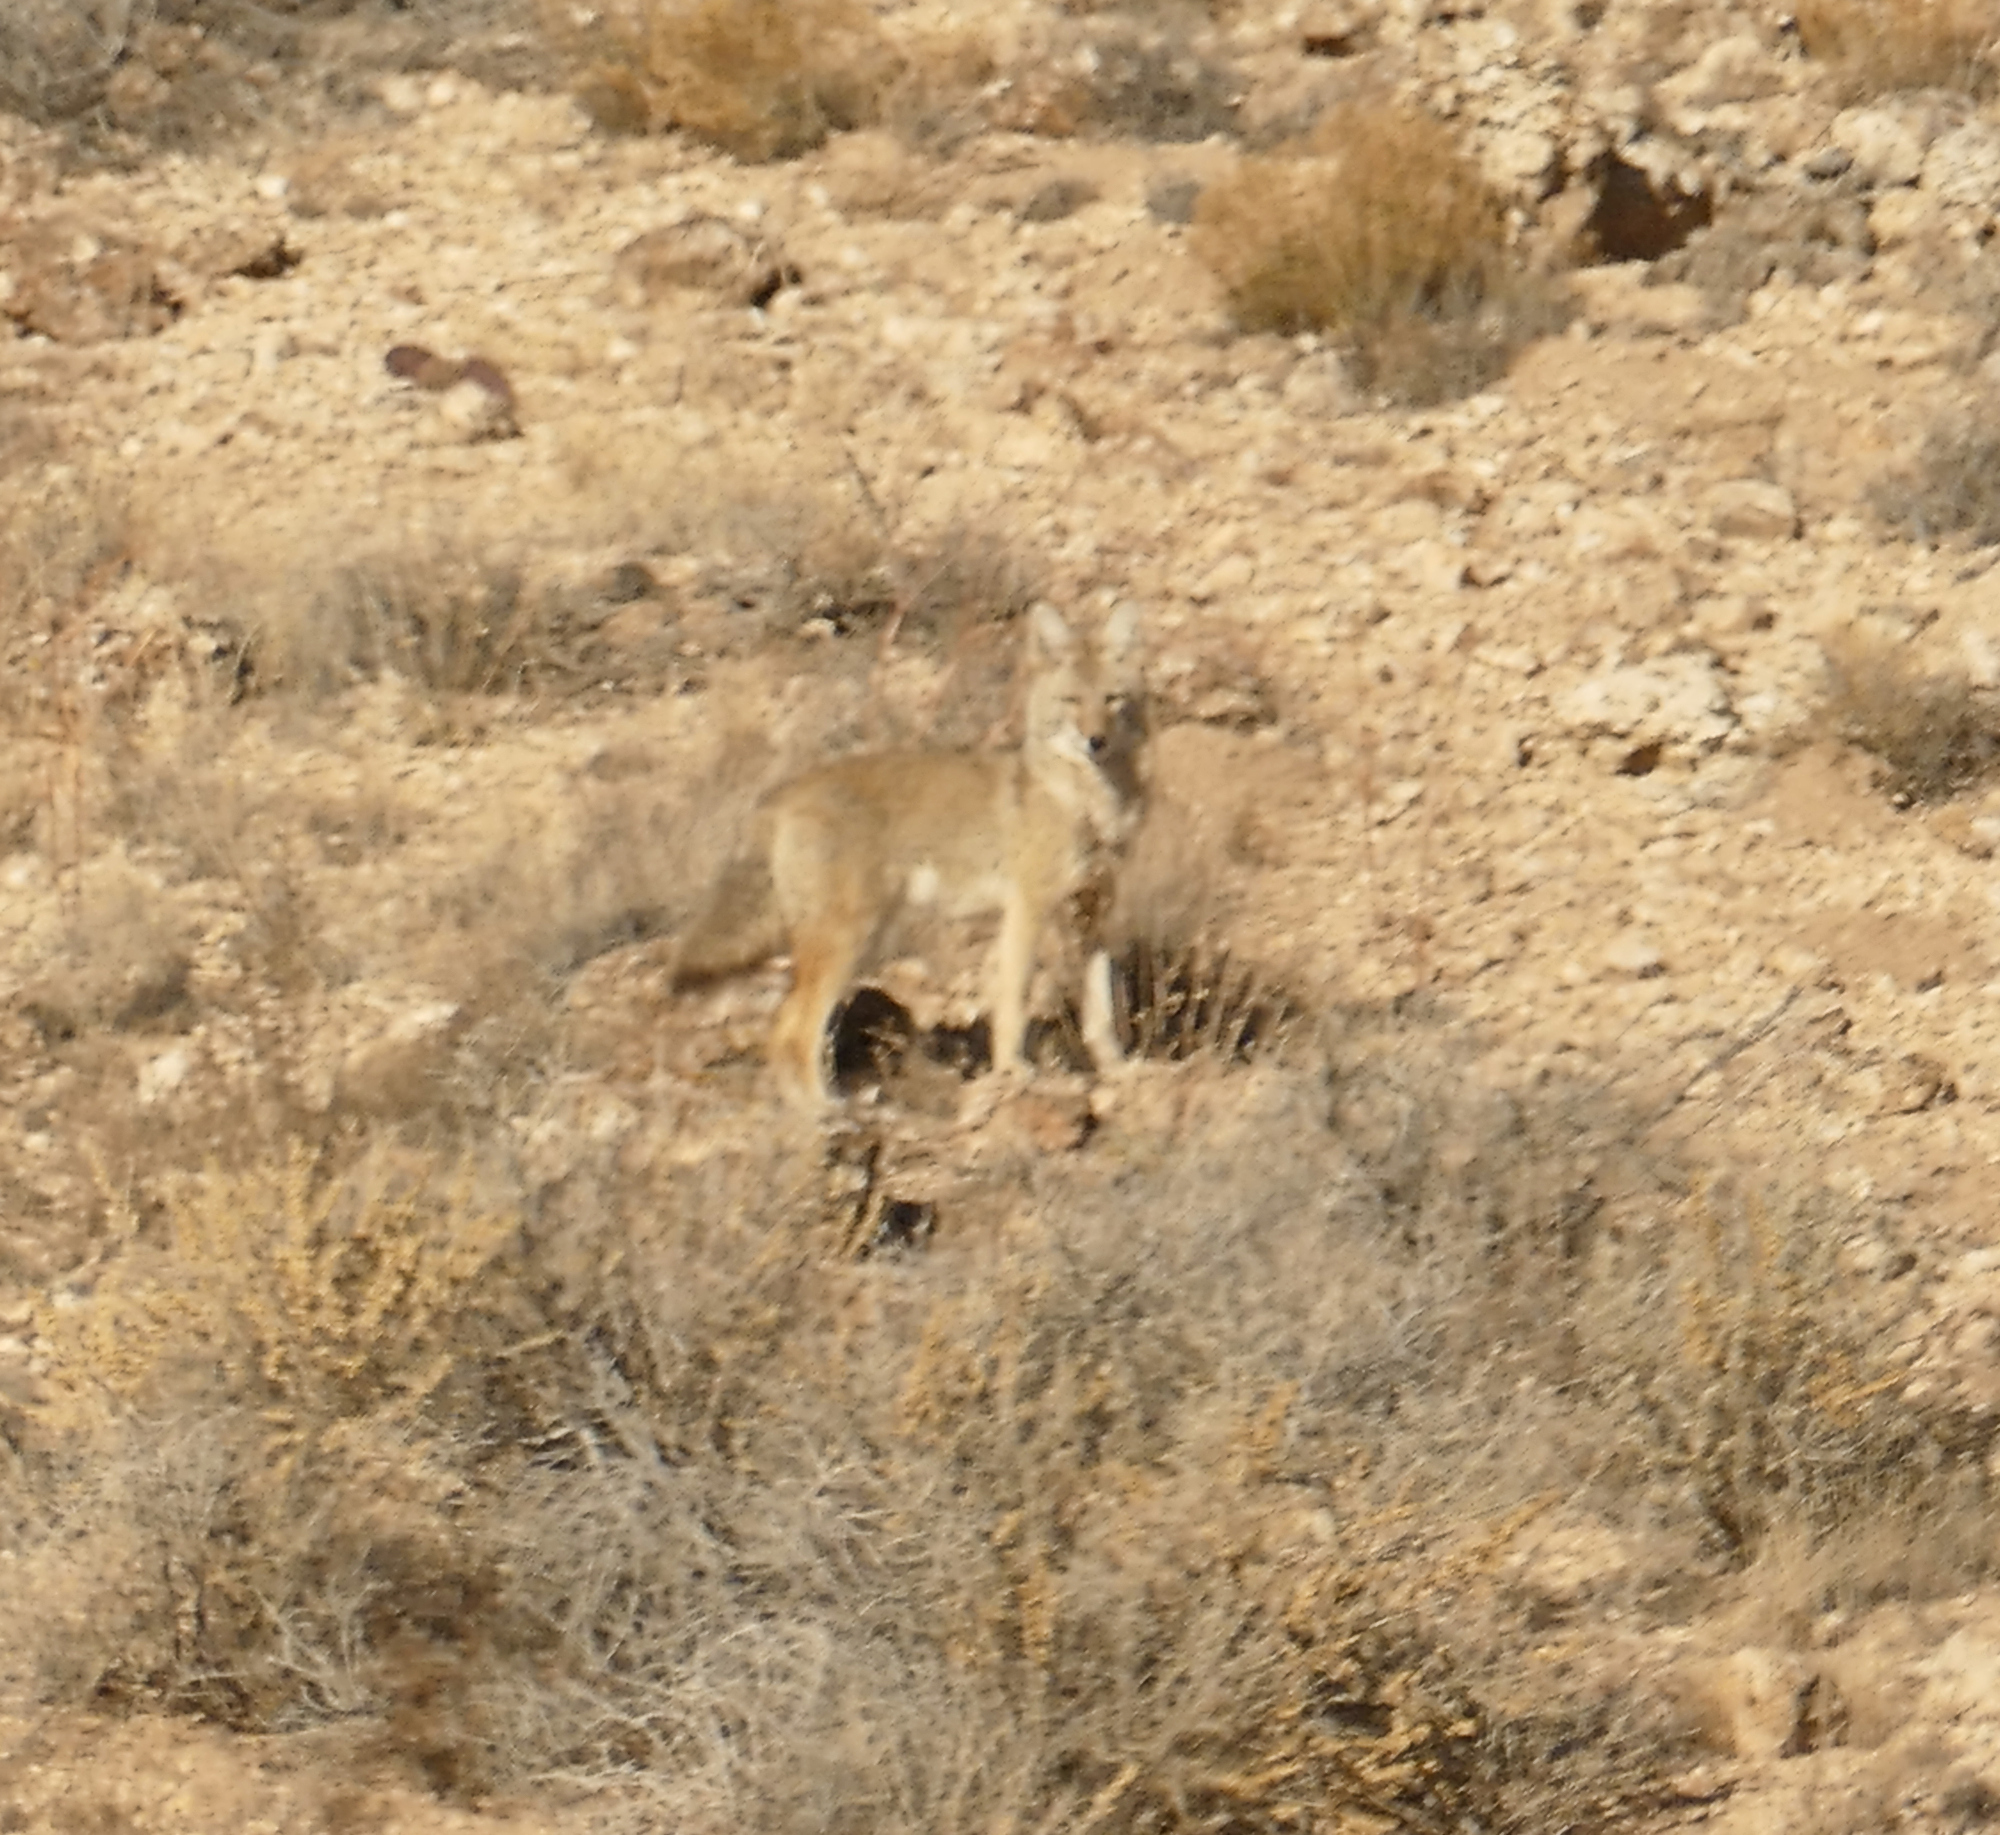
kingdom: Animalia
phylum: Chordata
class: Mammalia
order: Carnivora
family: Canidae
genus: Canis
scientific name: Canis latrans
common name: Coyote
